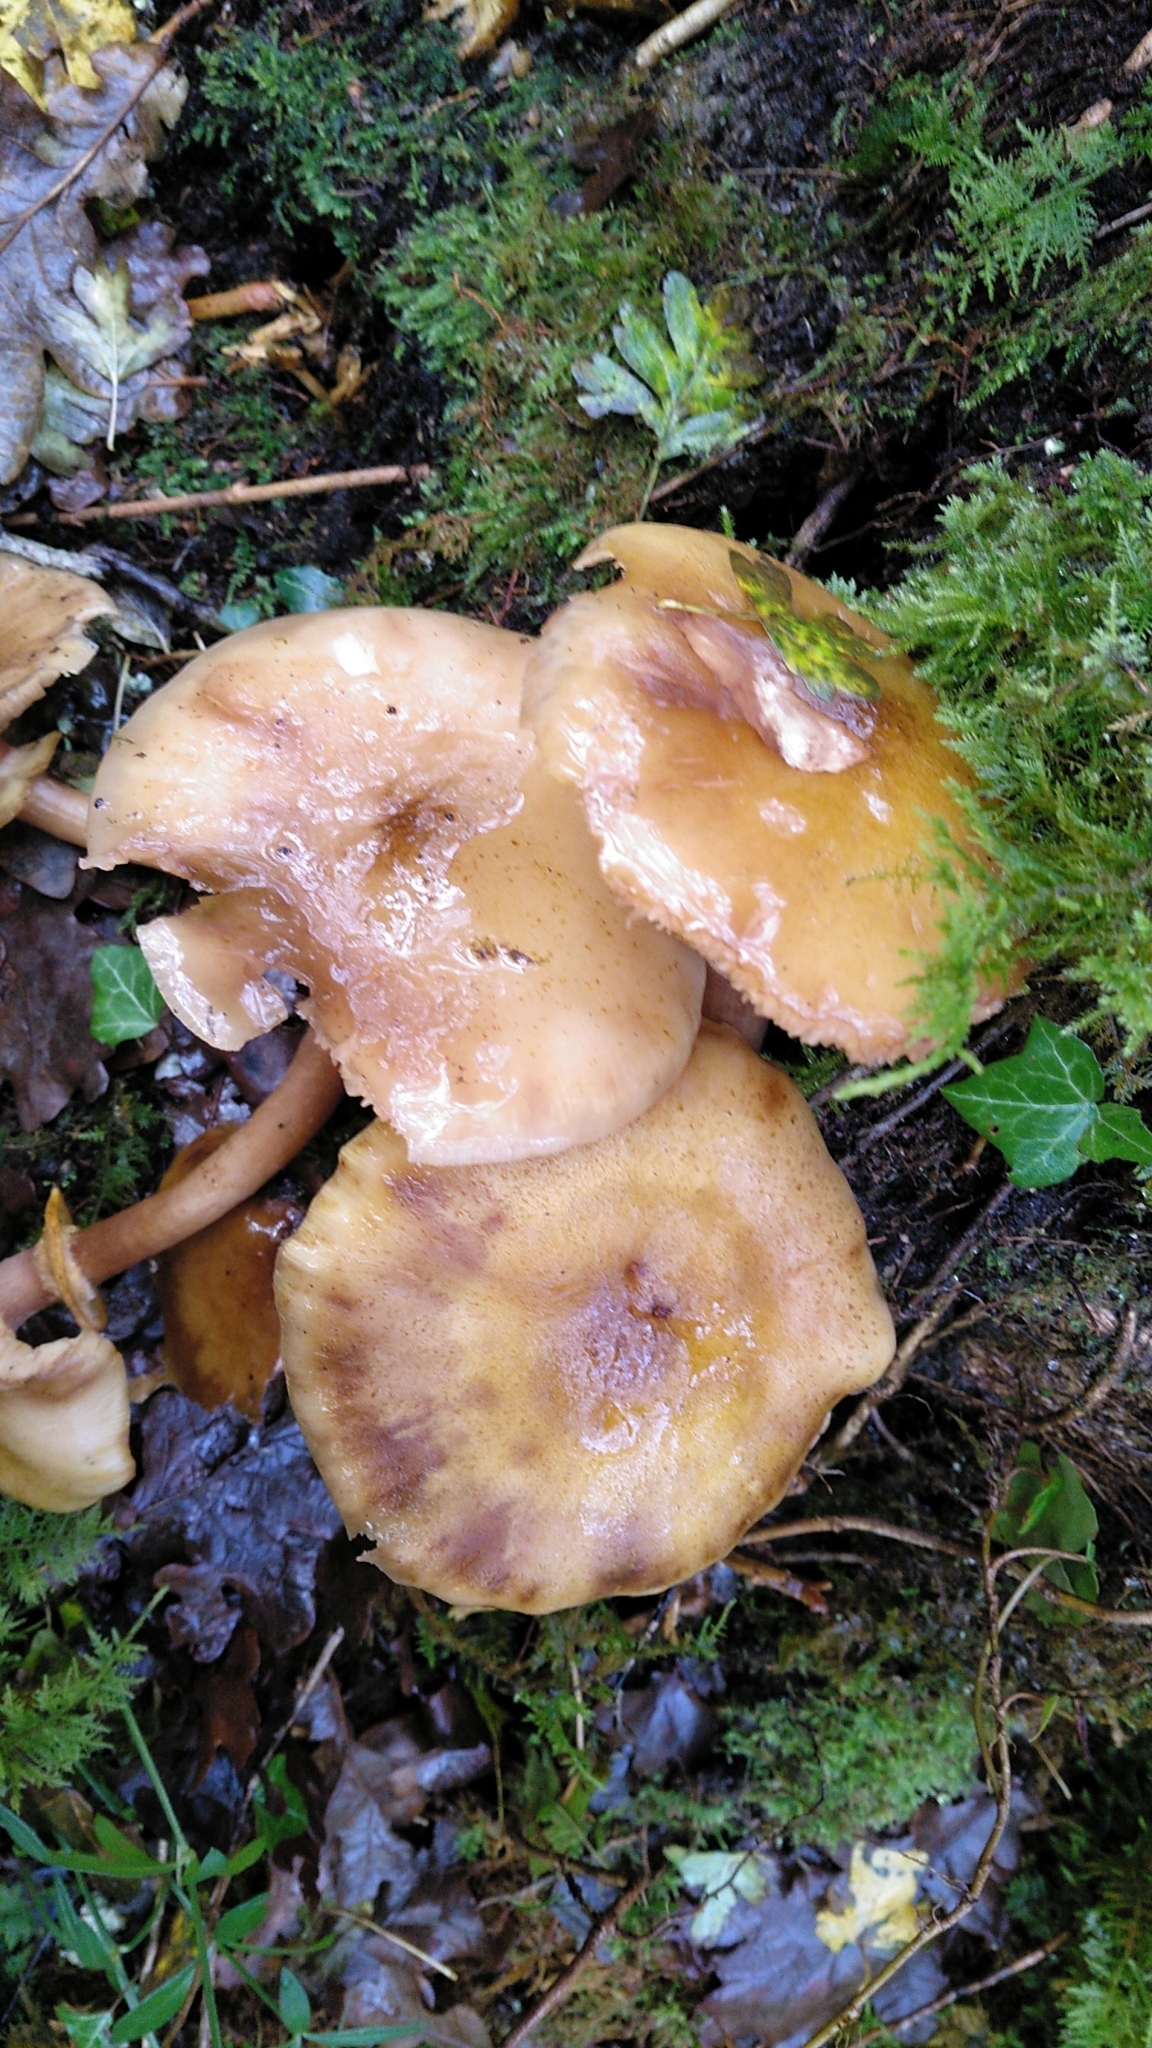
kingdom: Fungi
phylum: Basidiomycota
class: Agaricomycetes
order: Agaricales
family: Physalacriaceae
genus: Armillaria
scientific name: Armillaria mellea
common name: Honey fungus
